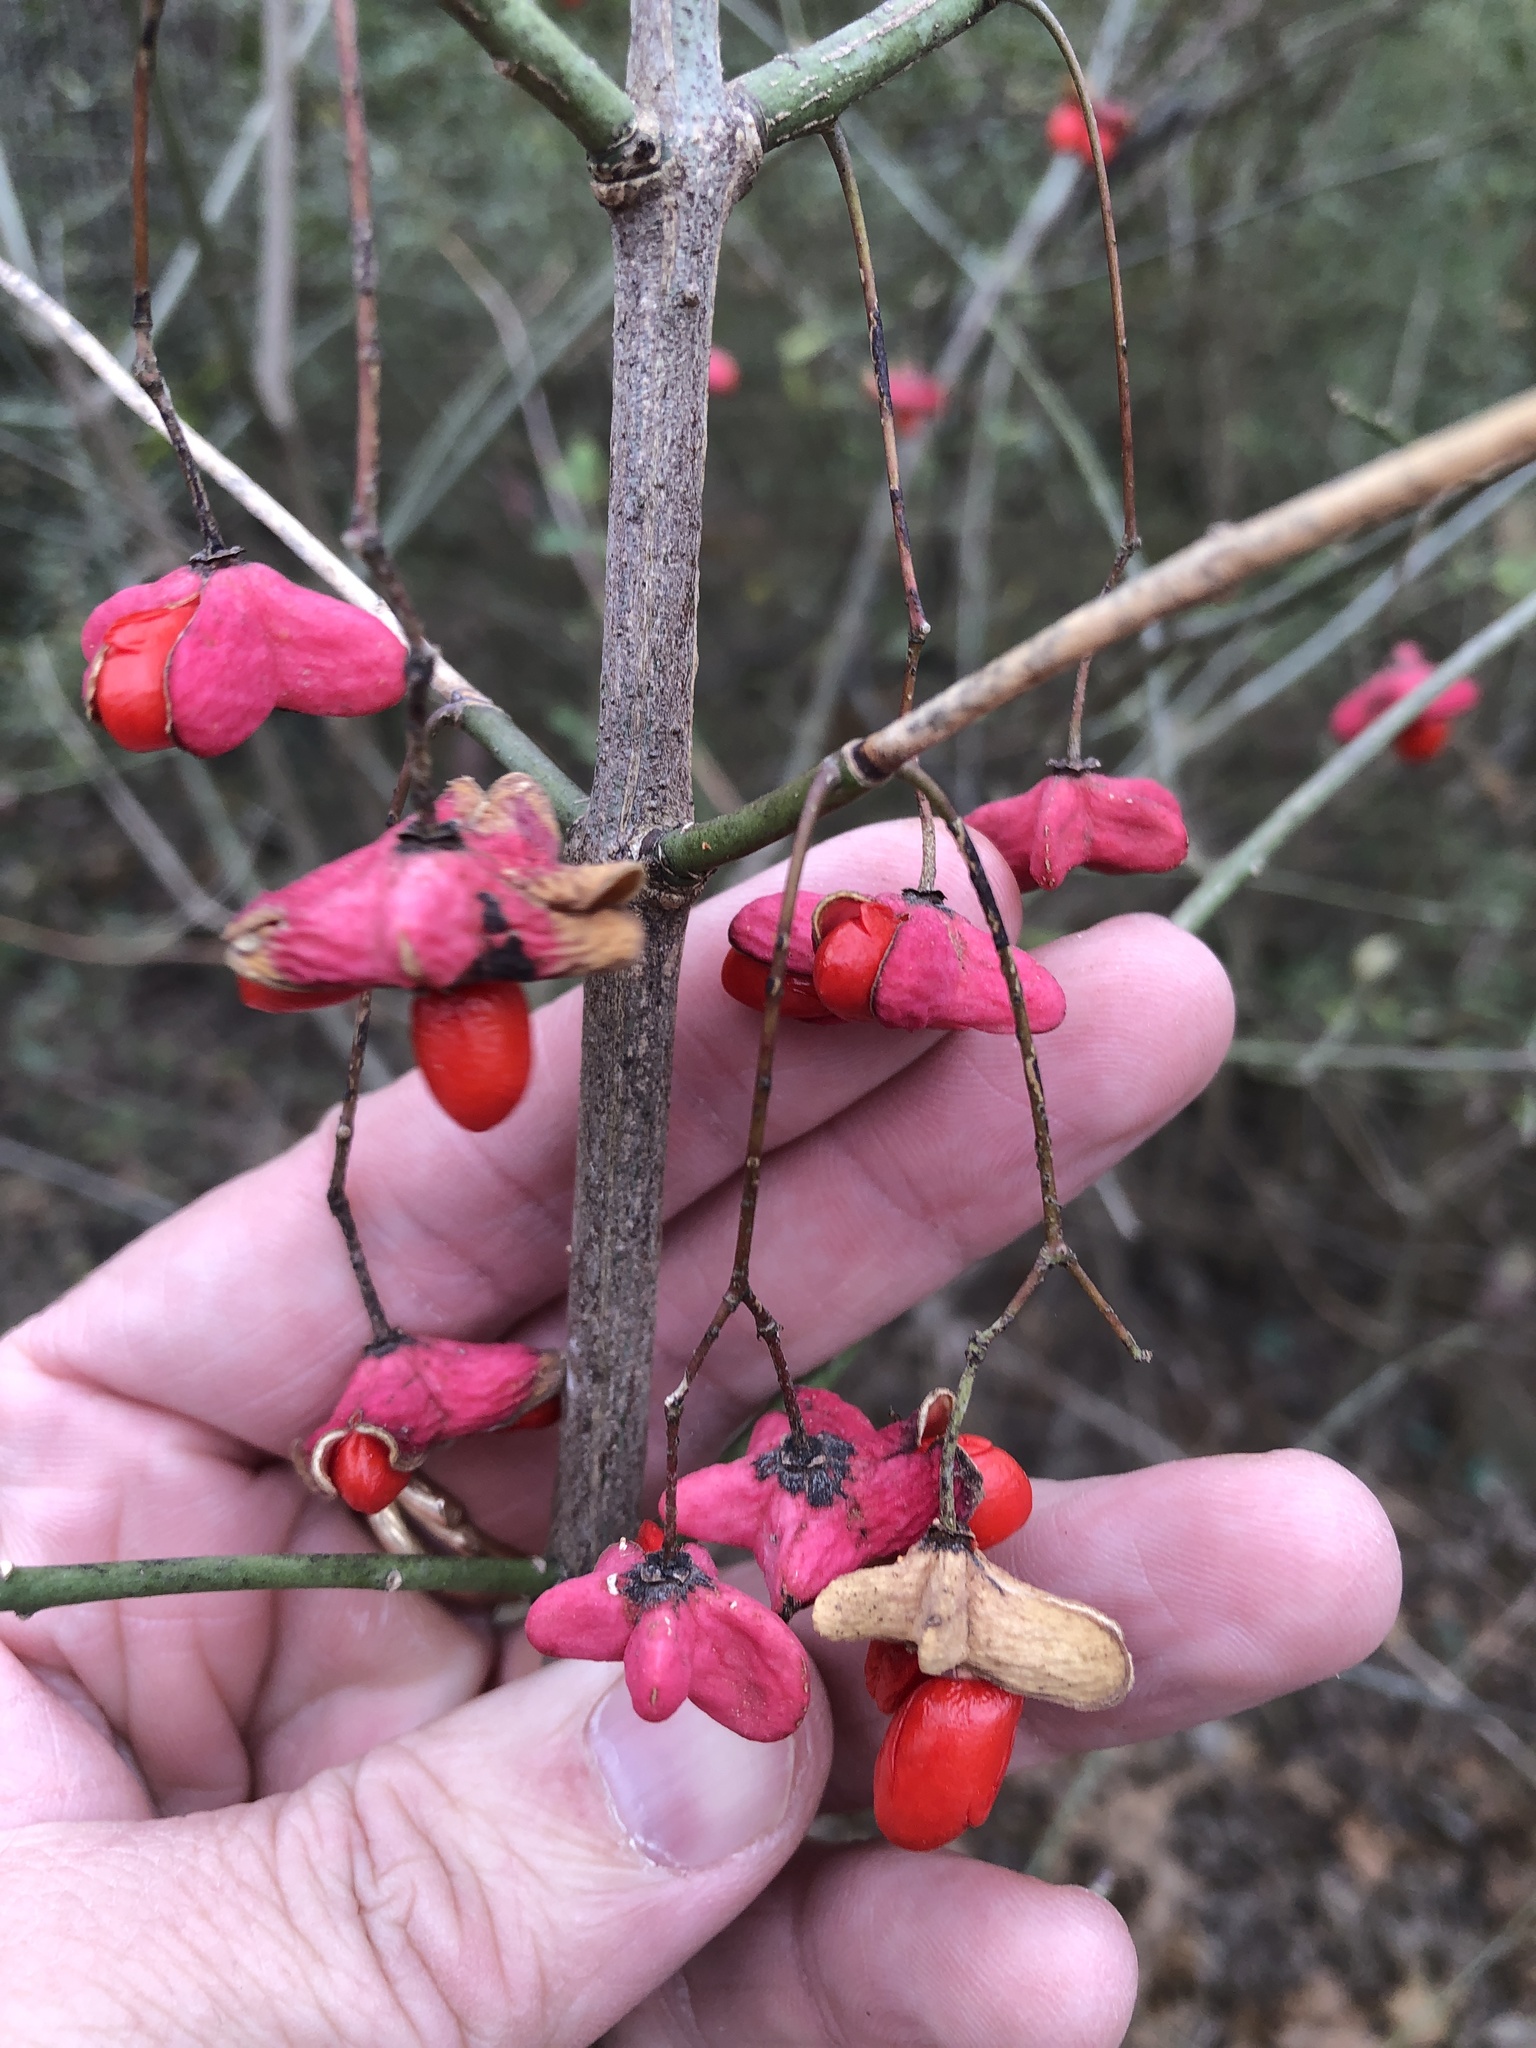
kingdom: Plantae
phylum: Tracheophyta
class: Magnoliopsida
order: Celastrales
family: Celastraceae
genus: Euonymus
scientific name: Euonymus atropurpureus
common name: Eastern wahoo
